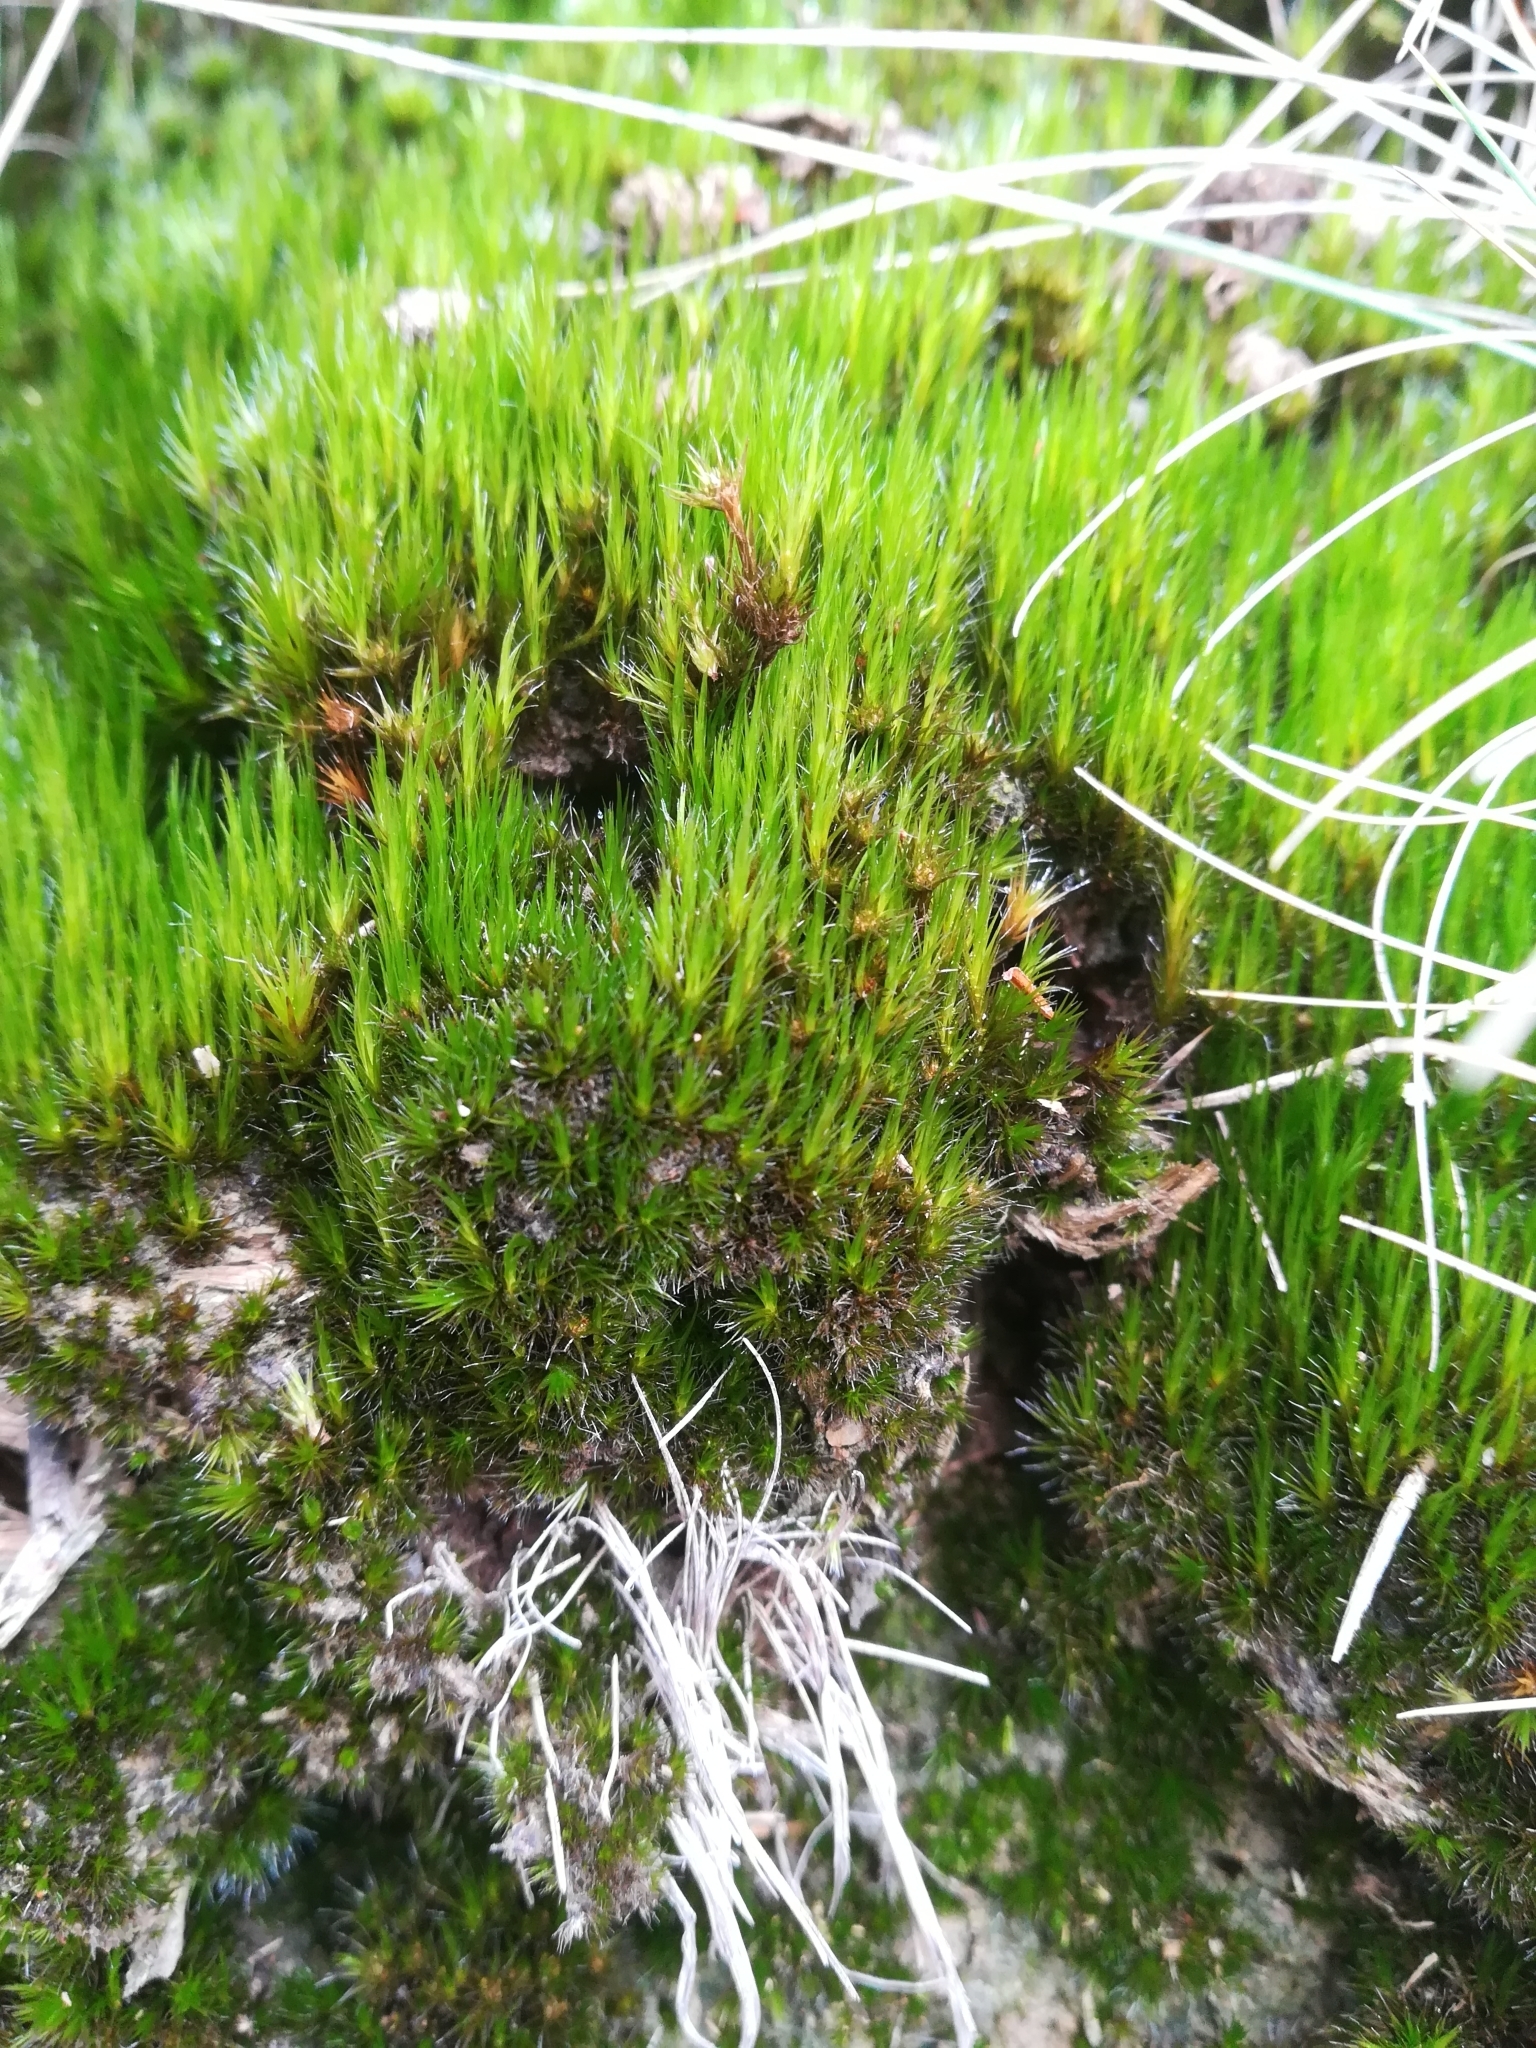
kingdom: Plantae
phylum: Bryophyta
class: Bryopsida
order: Dicranales
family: Leucobryaceae
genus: Campylopus
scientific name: Campylopus introflexus
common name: Heath star moss
